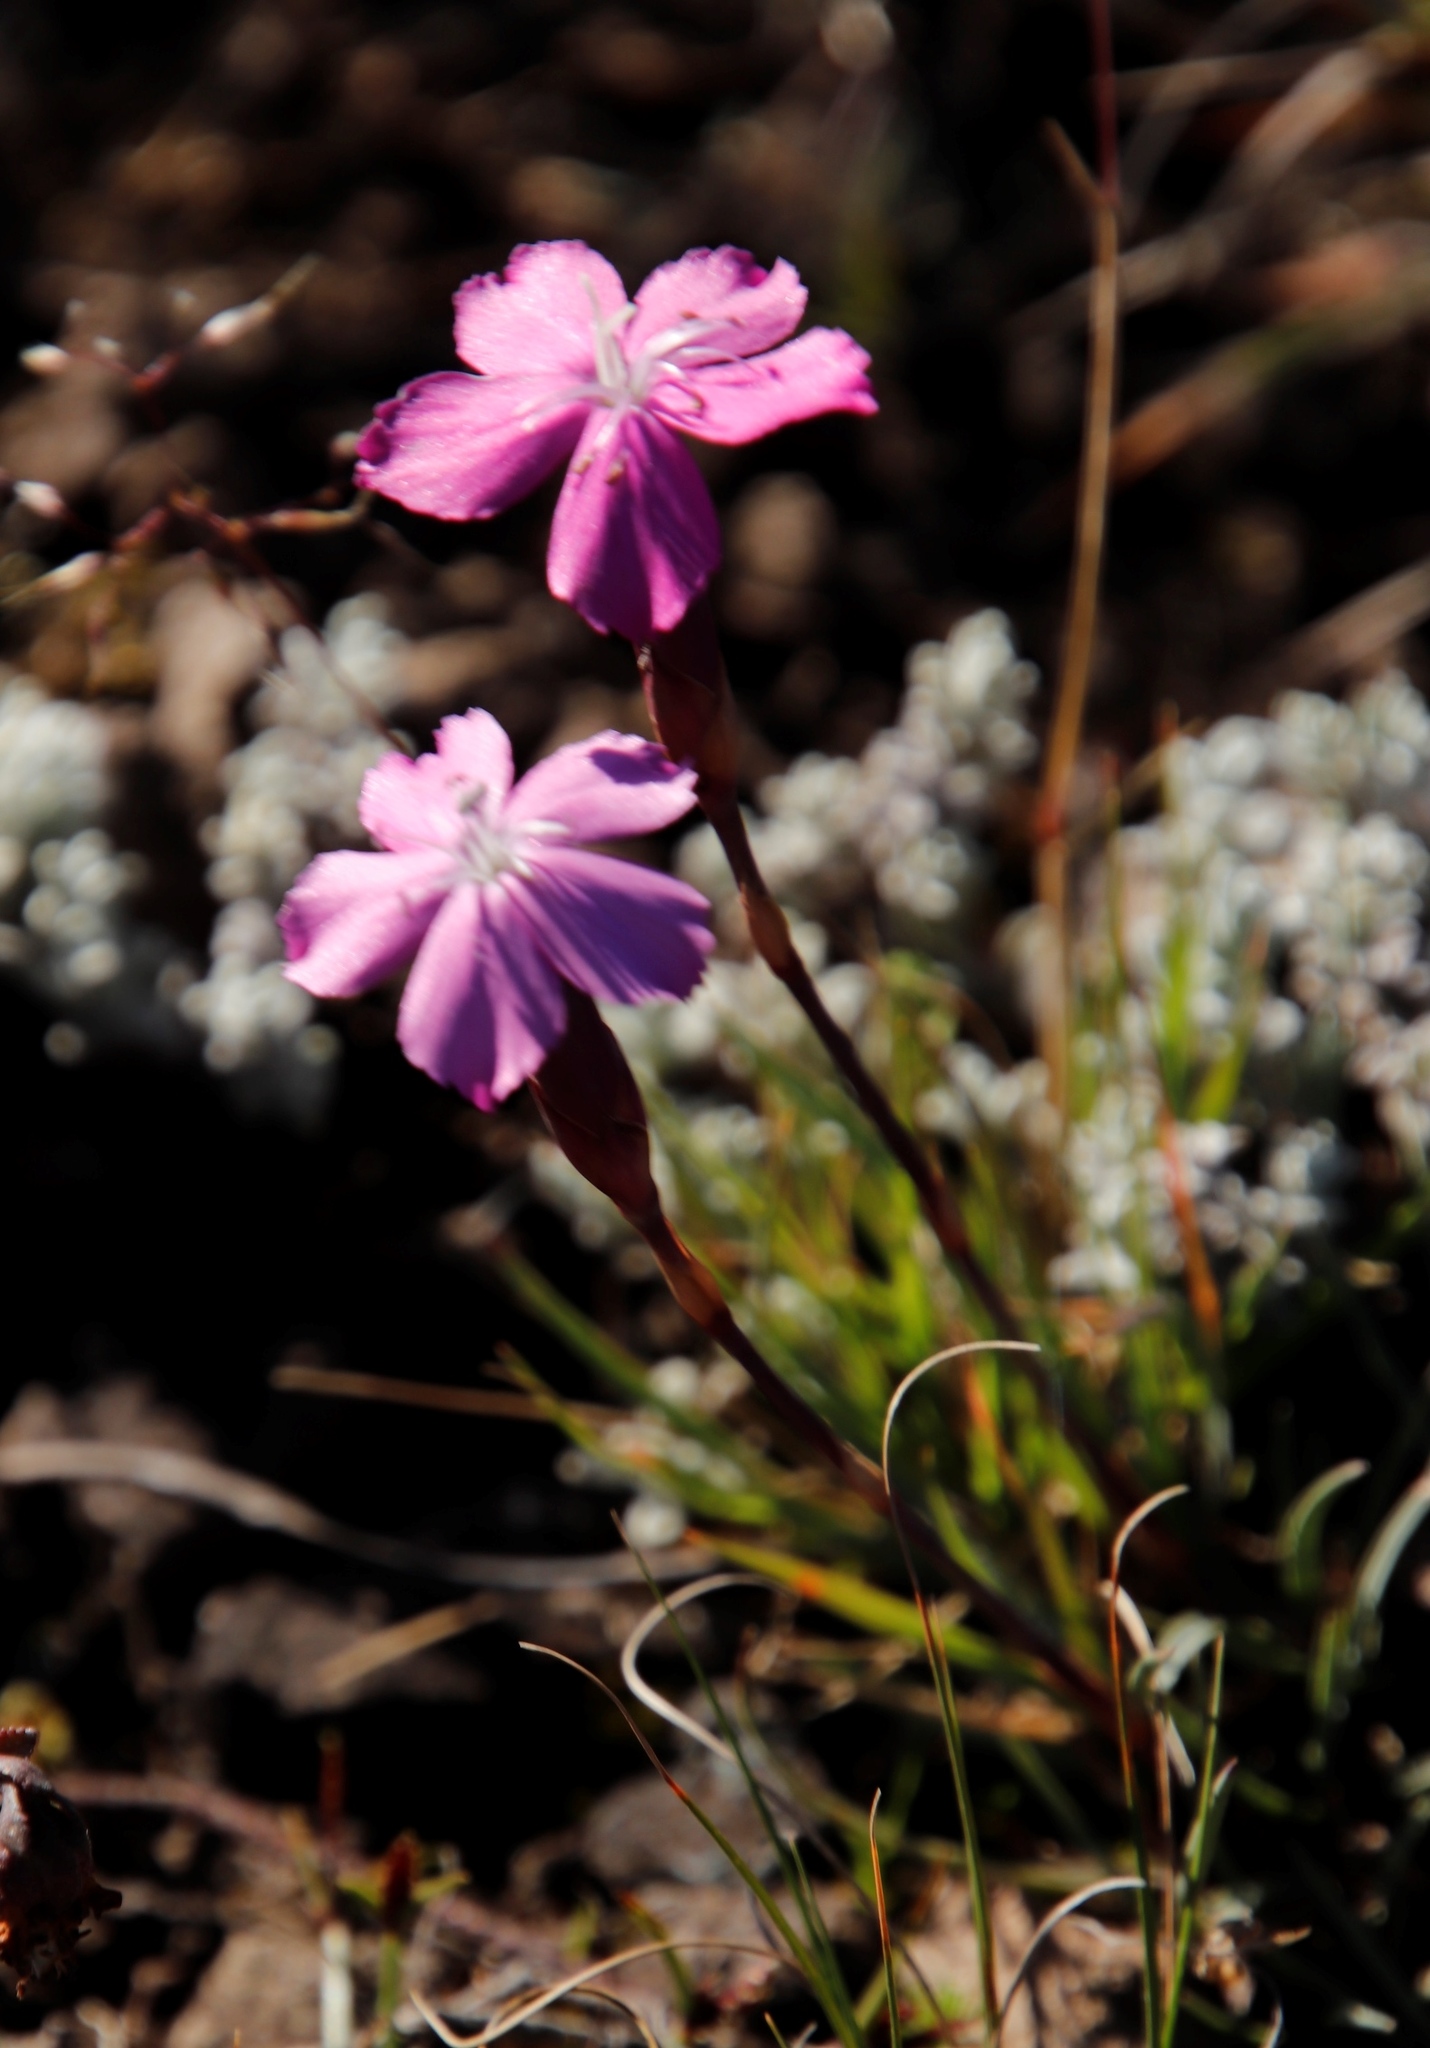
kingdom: Plantae
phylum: Tracheophyta
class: Magnoliopsida
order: Caryophyllales
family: Caryophyllaceae
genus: Dianthus
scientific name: Dianthus basuticus
